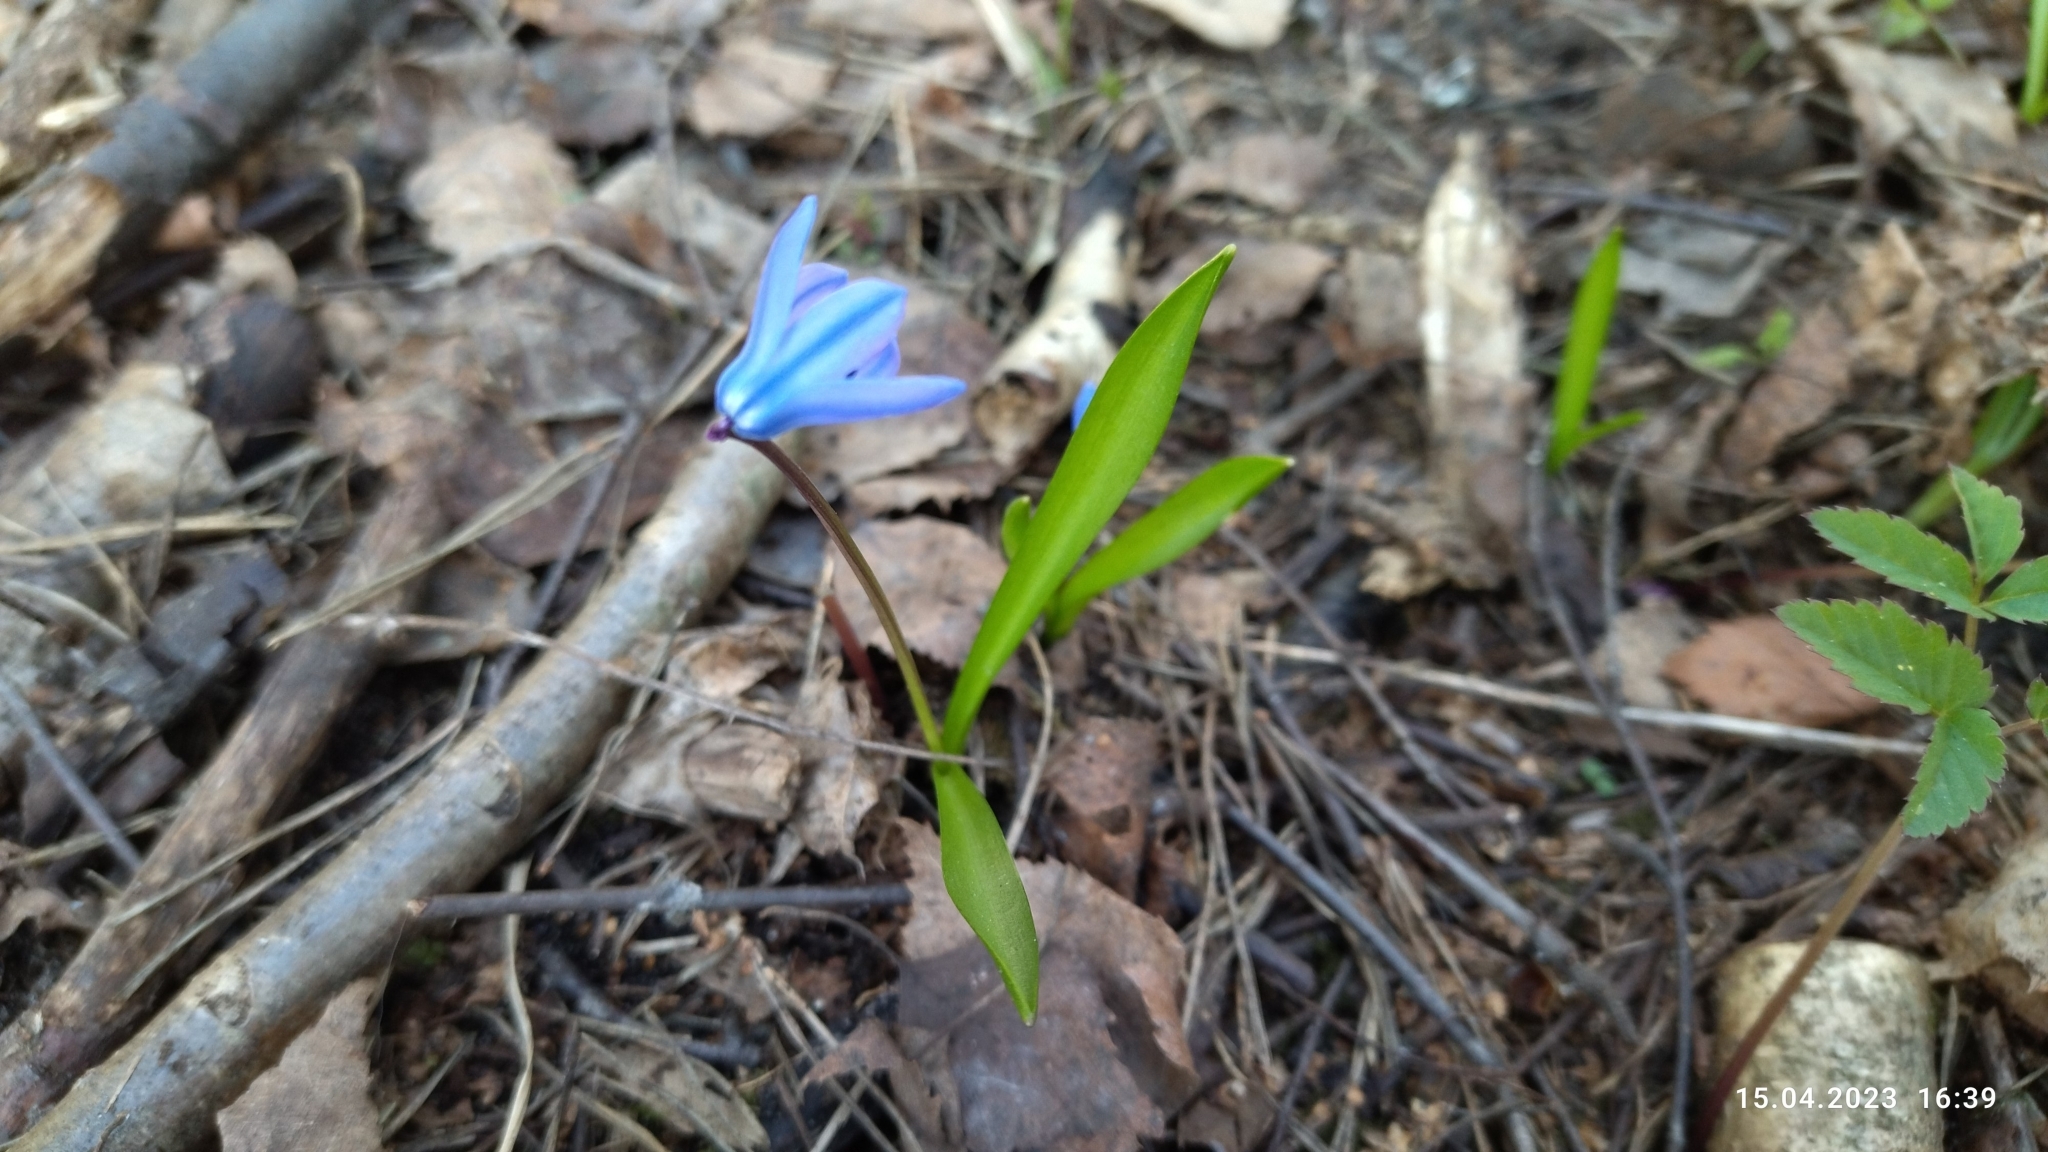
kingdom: Plantae
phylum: Tracheophyta
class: Liliopsida
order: Asparagales
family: Asparagaceae
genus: Scilla
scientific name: Scilla siberica
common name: Siberian squill
